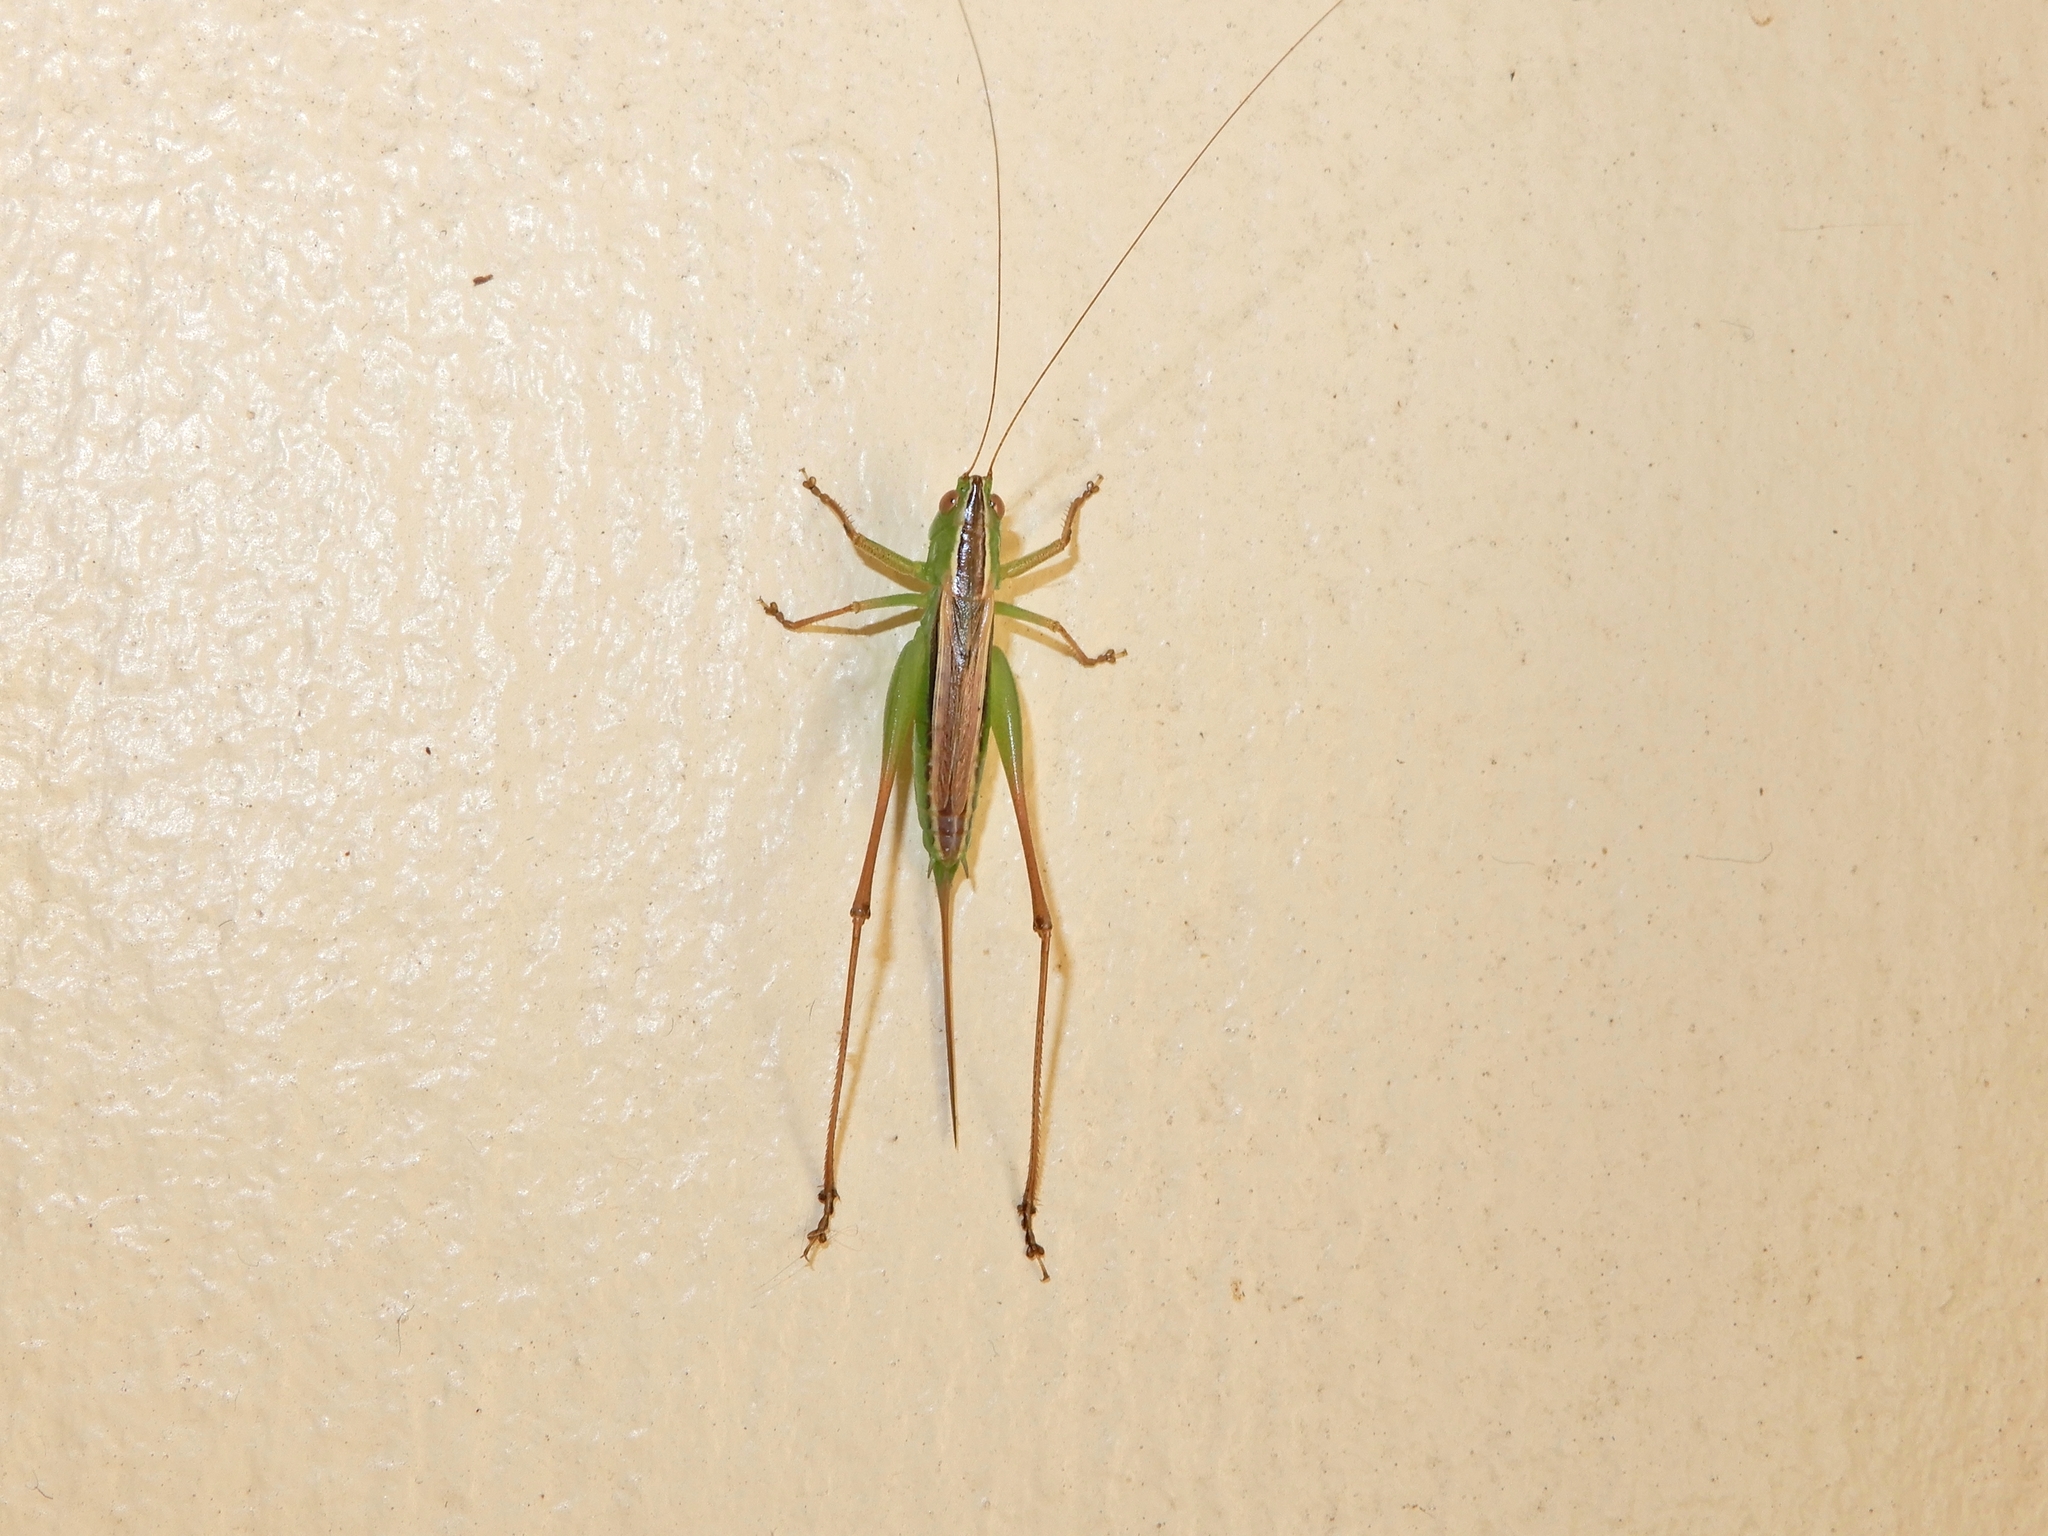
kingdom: Animalia
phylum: Arthropoda
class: Insecta
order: Orthoptera
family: Tettigoniidae
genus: Conocephalus
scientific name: Conocephalus albescens
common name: Whitish meadow katydid
